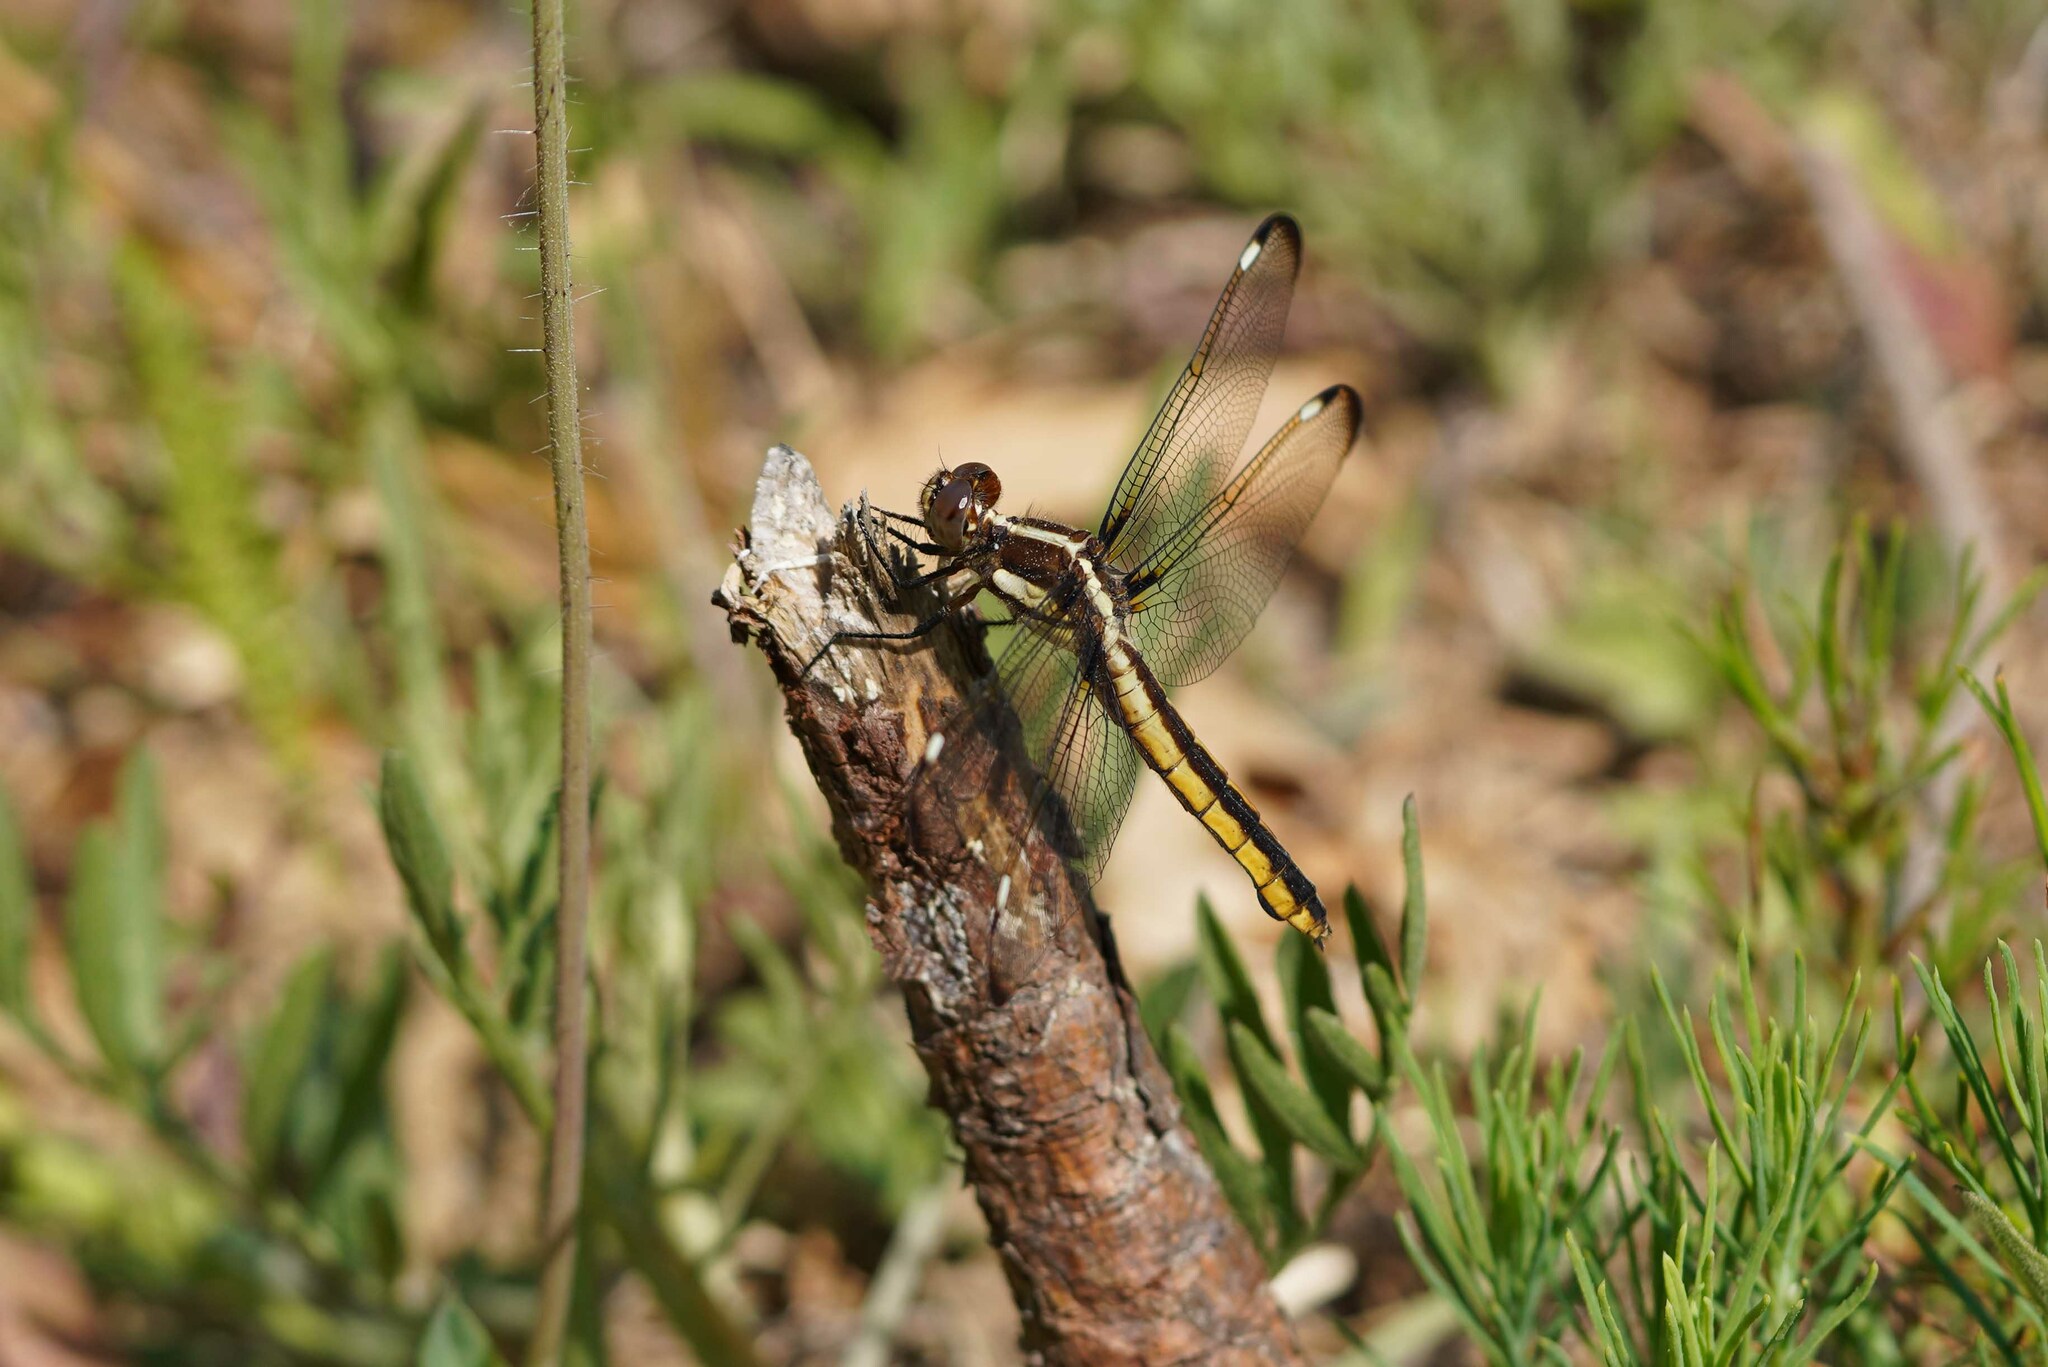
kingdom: Animalia
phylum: Arthropoda
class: Insecta
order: Odonata
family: Libellulidae
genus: Libellula
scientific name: Libellula cyanea
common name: Spangled skimmer
